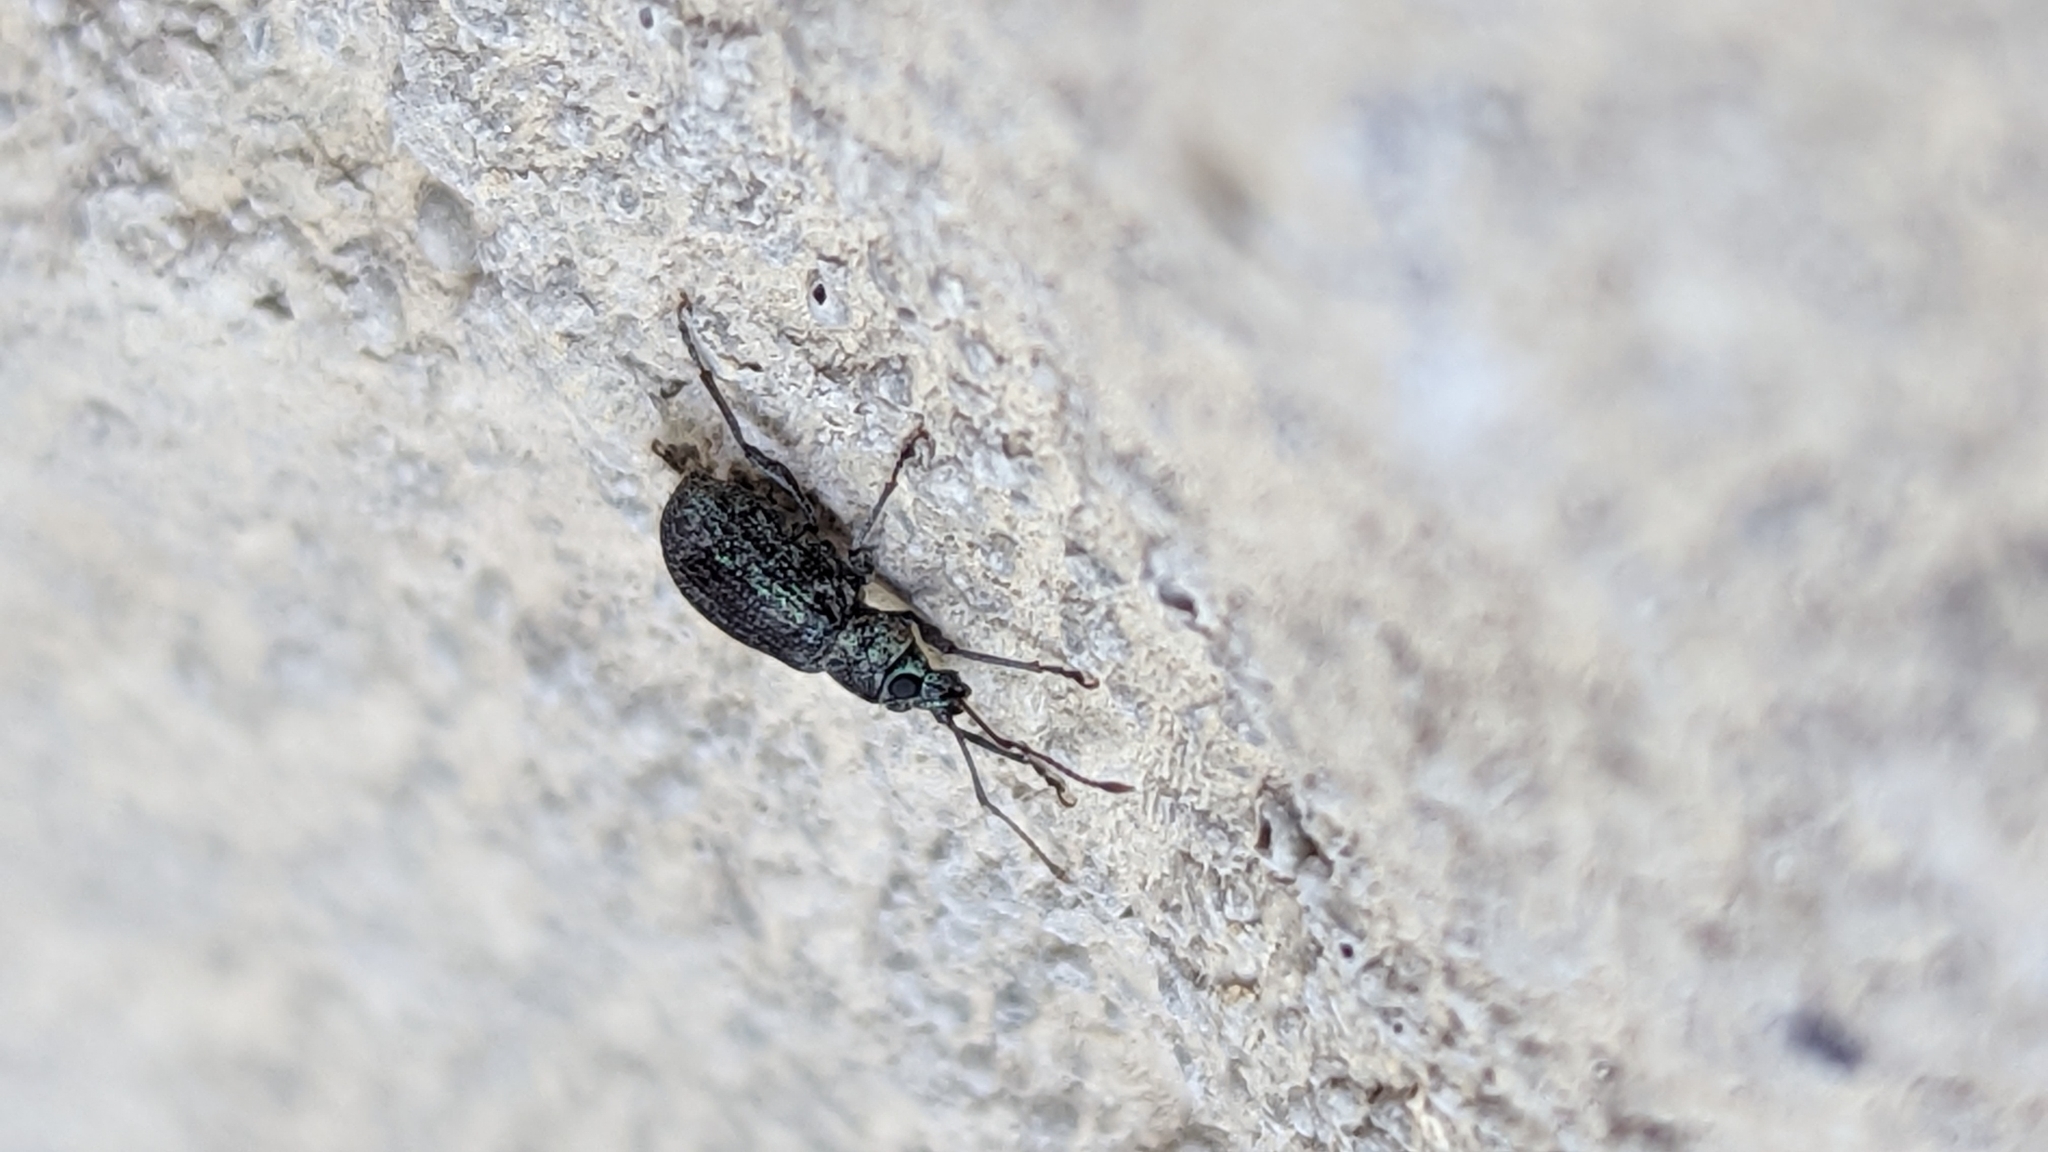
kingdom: Animalia
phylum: Arthropoda
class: Insecta
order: Coleoptera
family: Curculionidae
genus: Cyrtepistomus
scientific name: Cyrtepistomus castaneus
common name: Weevil
